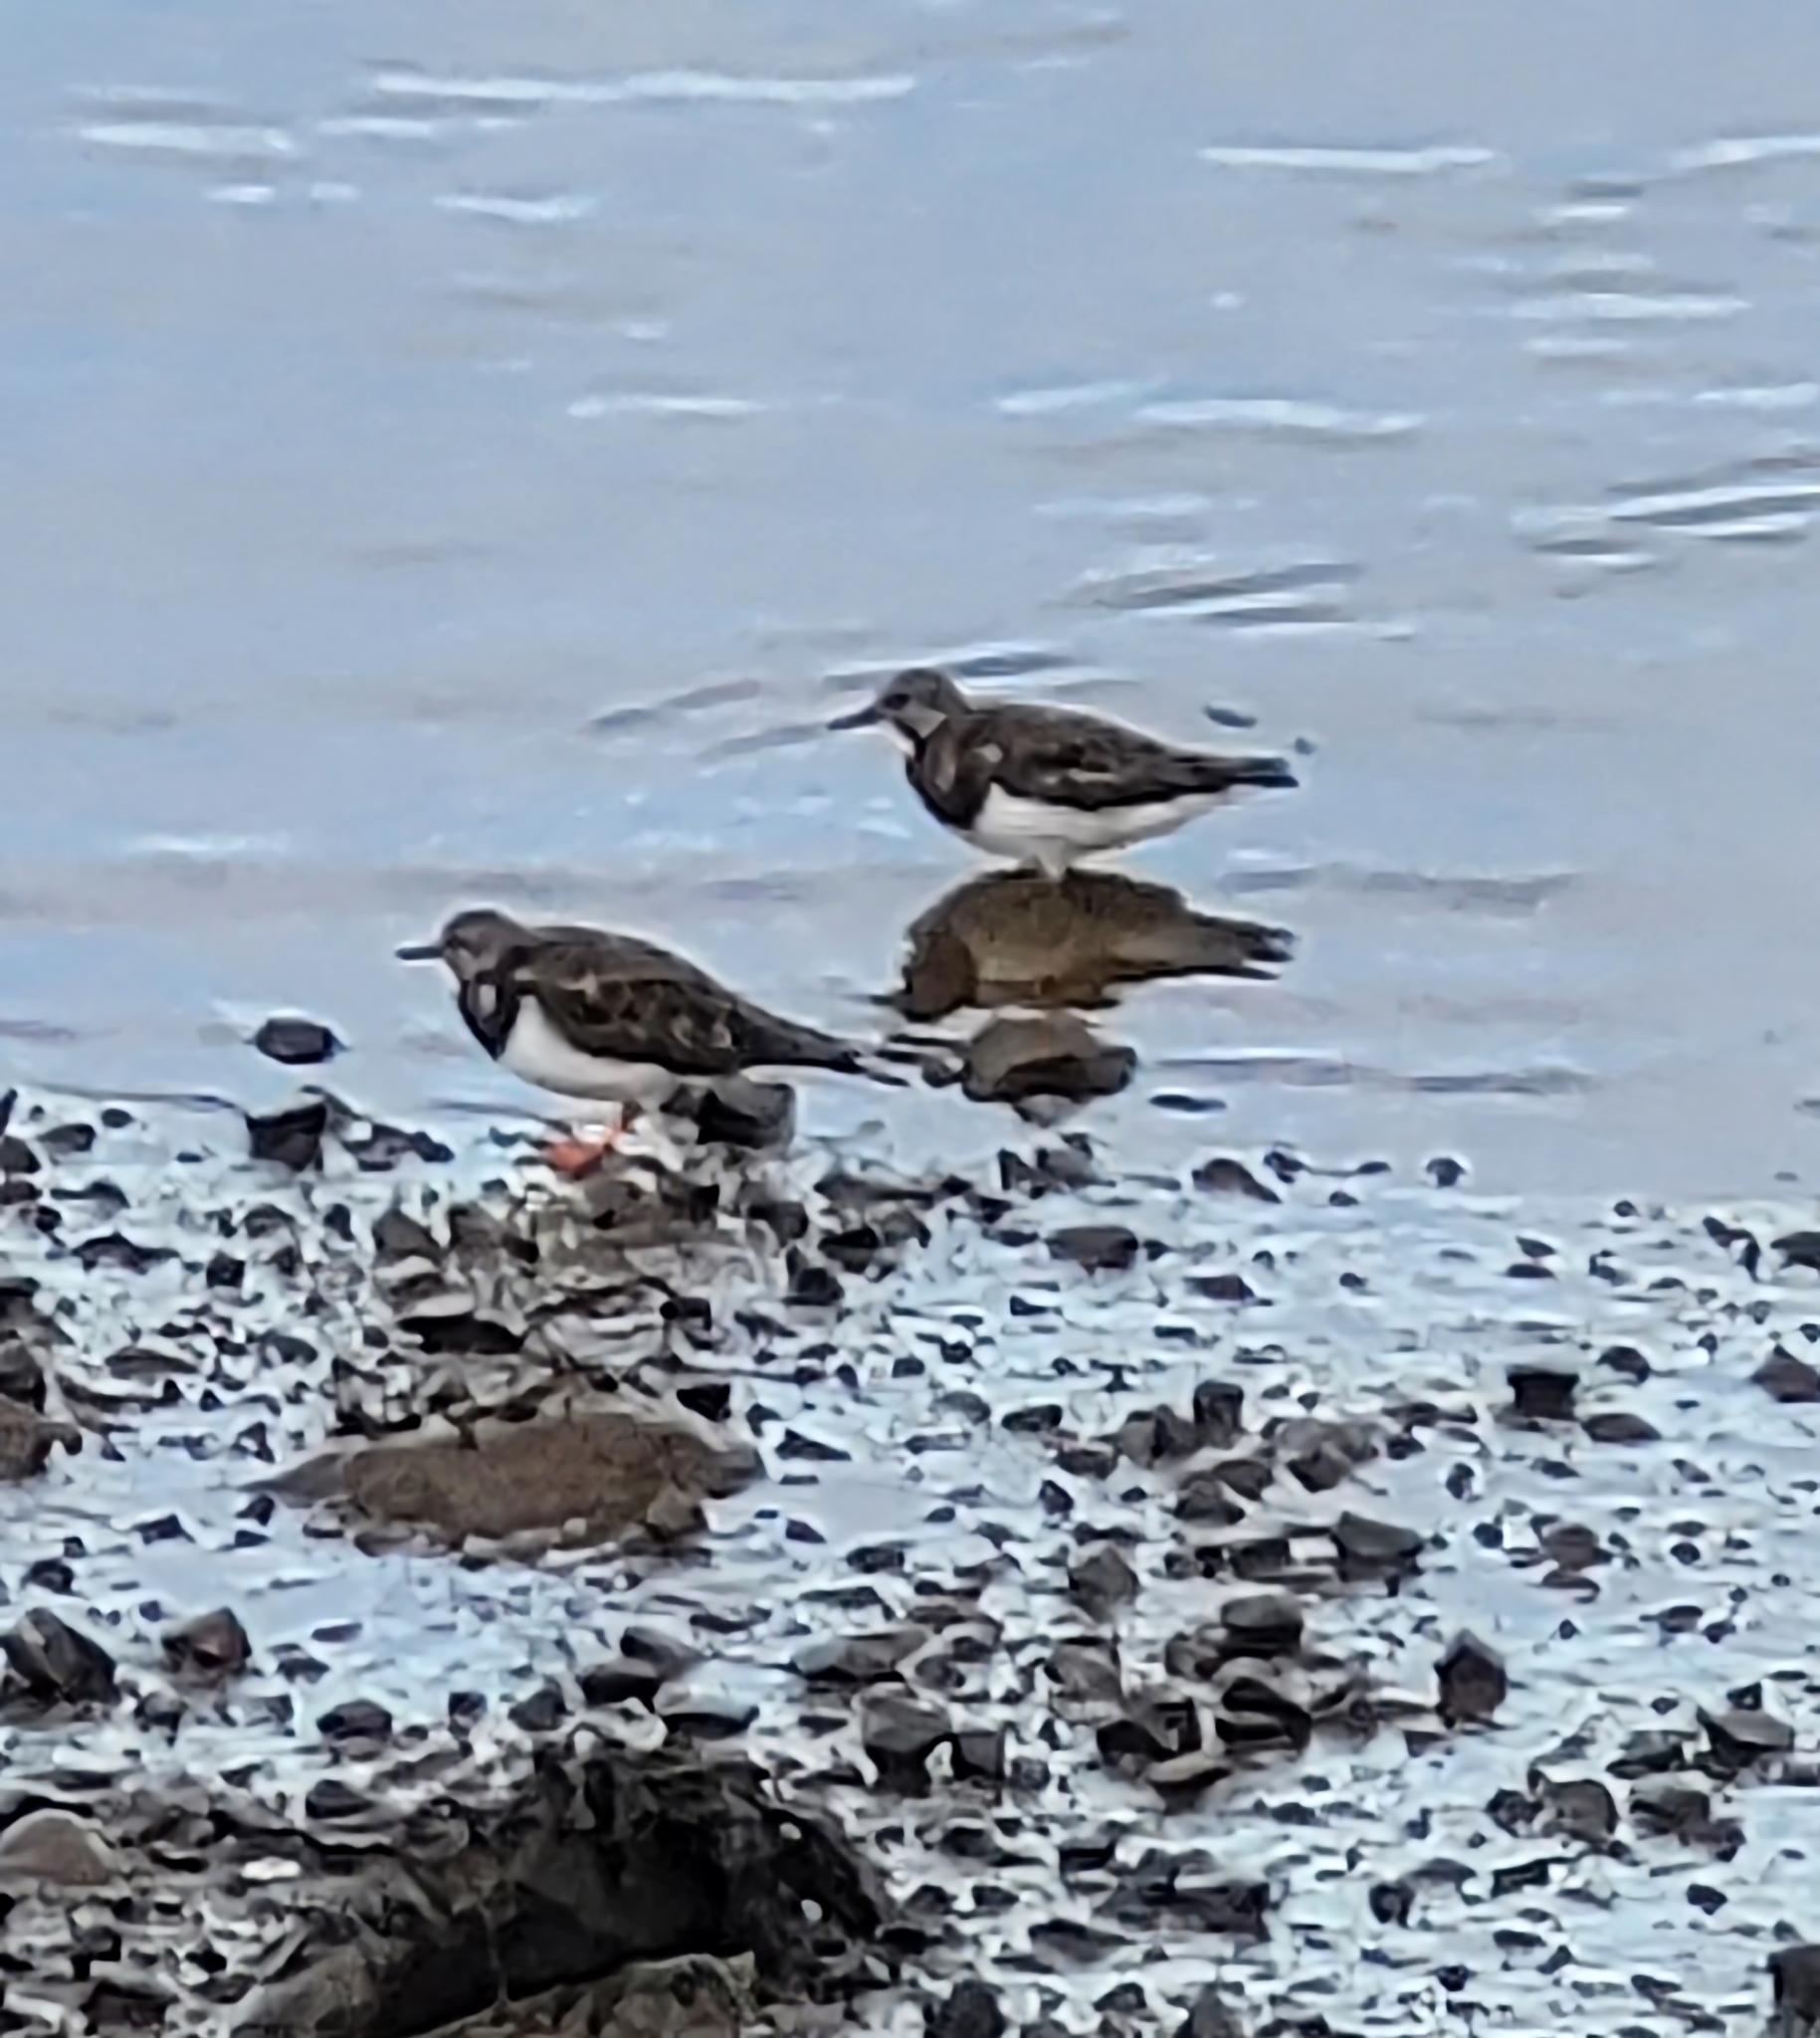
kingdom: Animalia
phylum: Chordata
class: Aves
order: Charadriiformes
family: Scolopacidae
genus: Arenaria
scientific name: Arenaria interpres
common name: Ruddy turnstone
